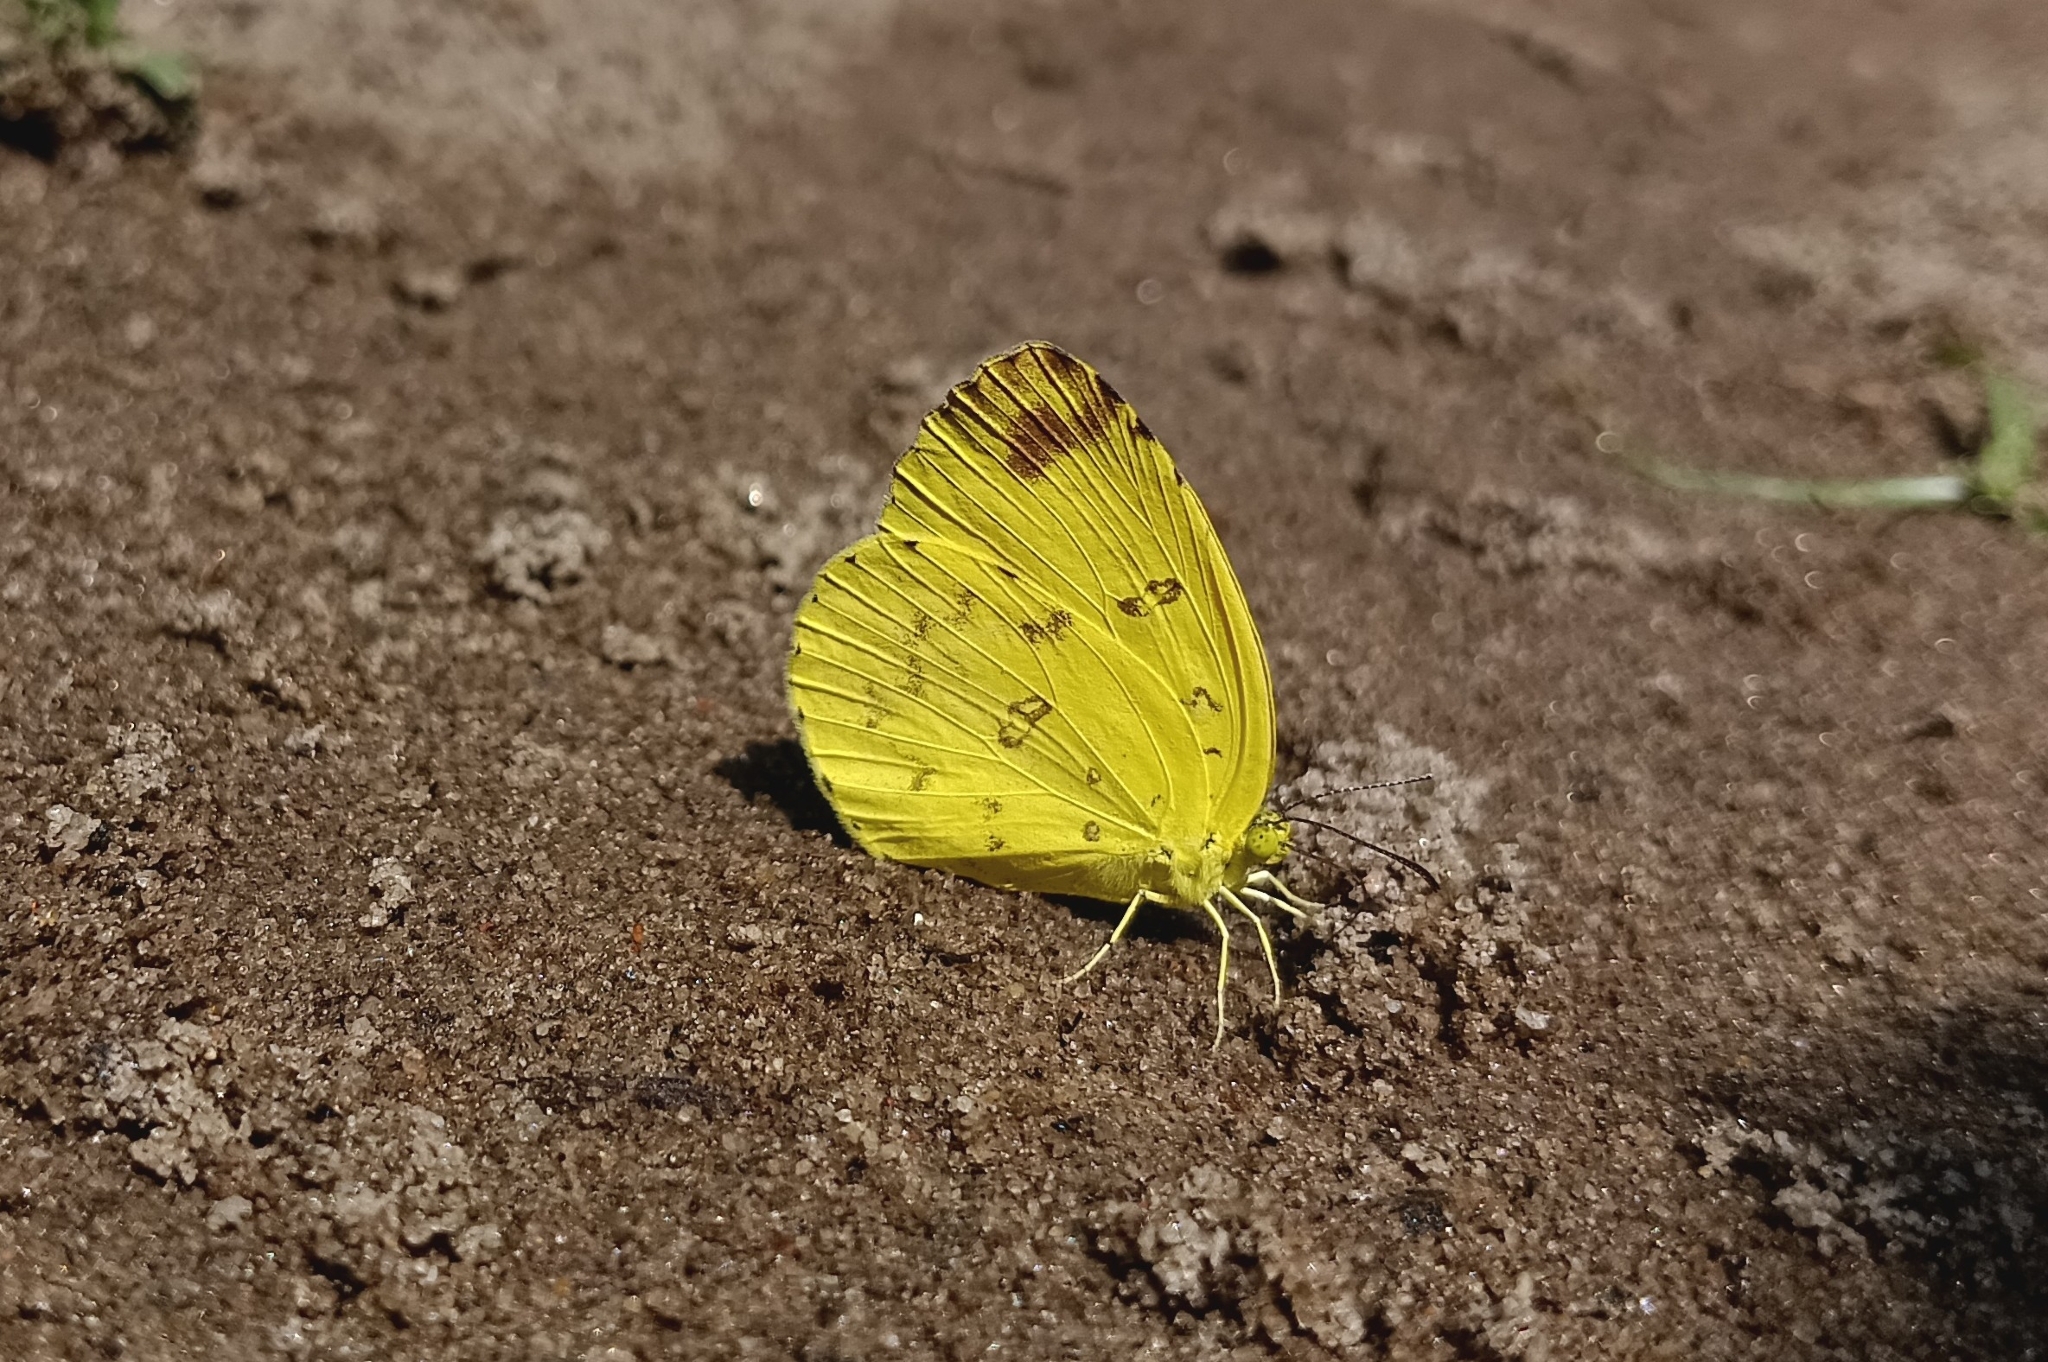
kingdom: Animalia
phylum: Arthropoda
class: Insecta
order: Lepidoptera
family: Pieridae
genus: Eurema
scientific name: Eurema blanda
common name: Three-spot grass yellow
